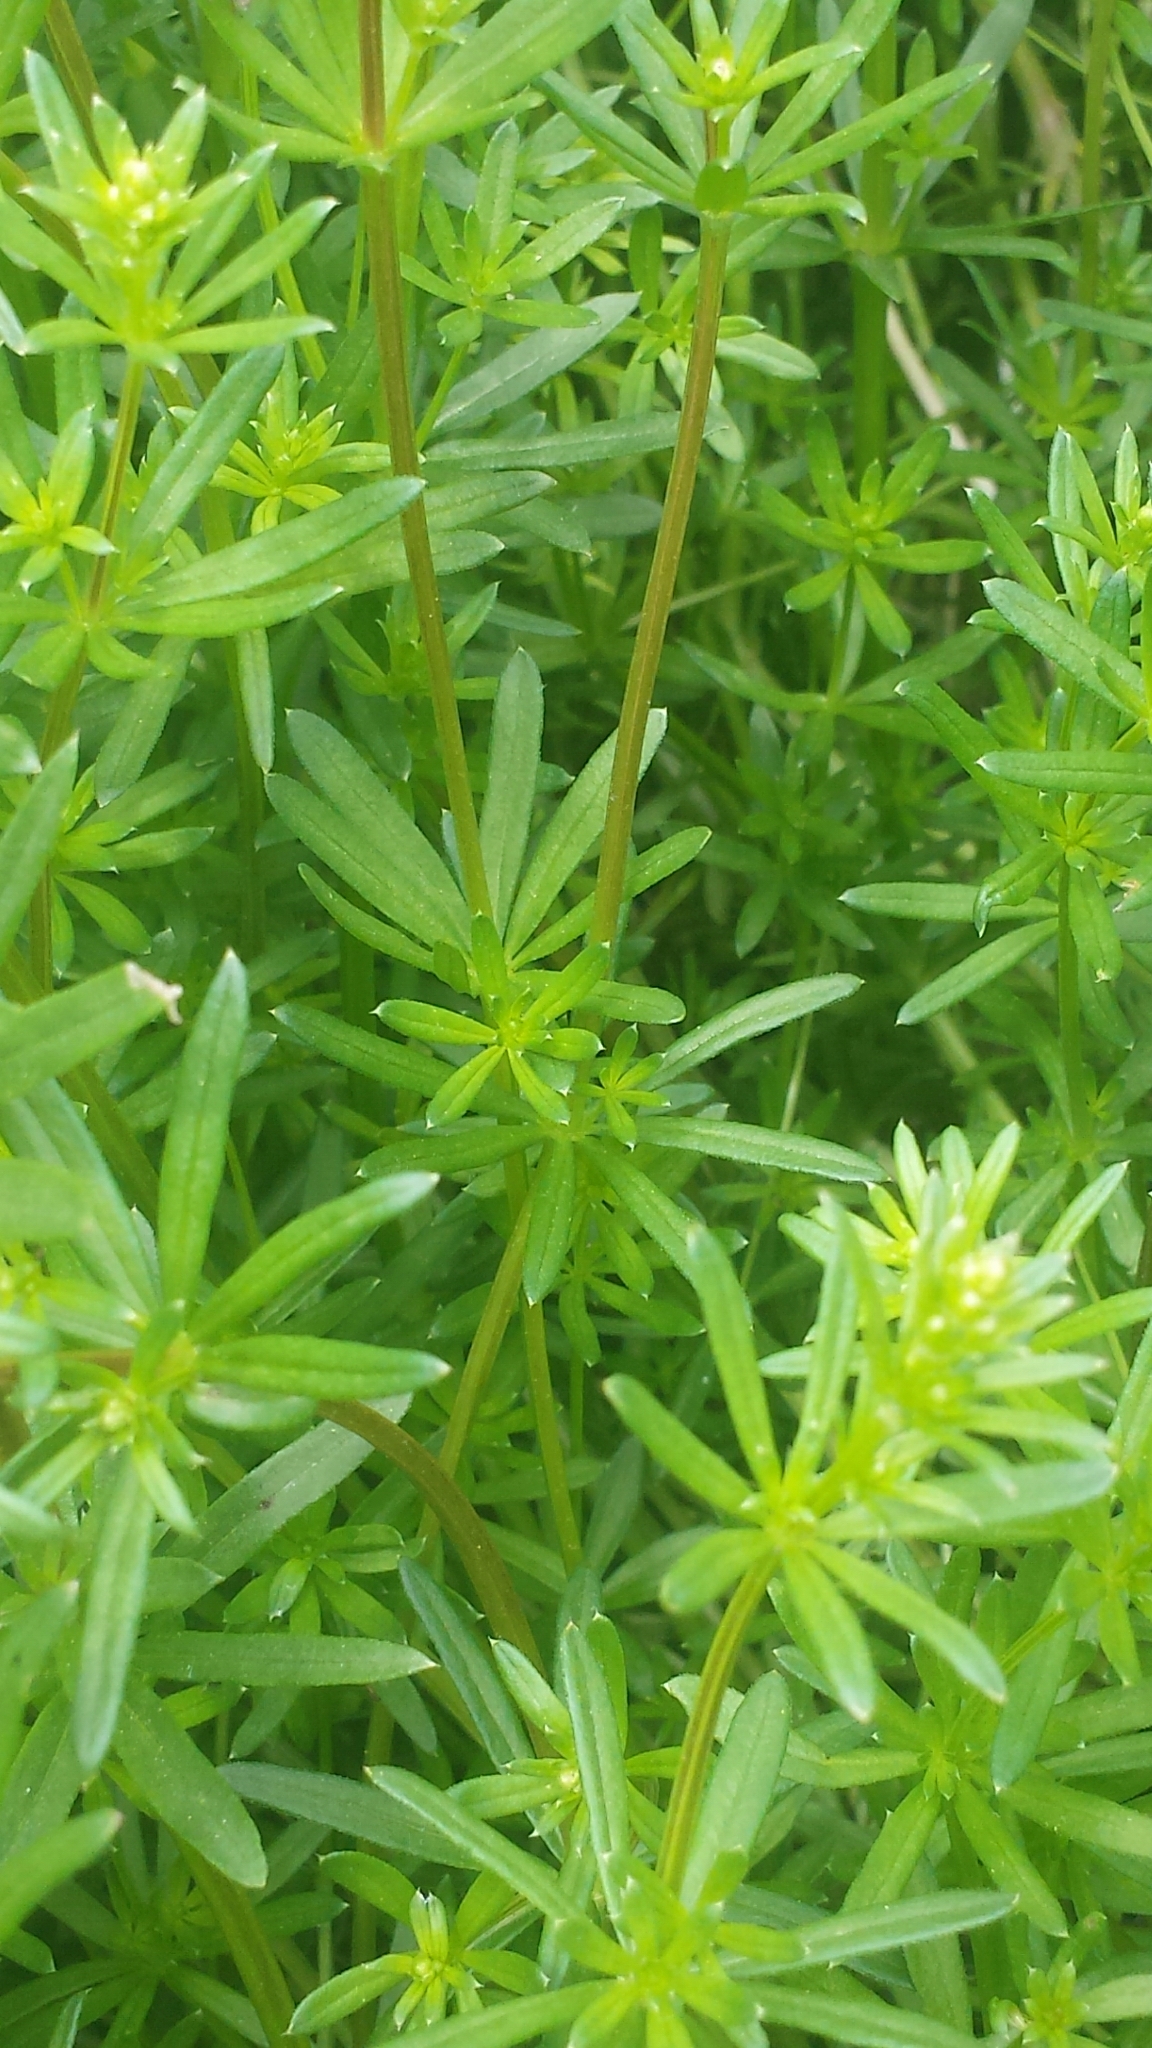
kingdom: Plantae
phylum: Tracheophyta
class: Magnoliopsida
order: Gentianales
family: Rubiaceae
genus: Galium
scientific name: Galium mollugo
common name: Hedge bedstraw
